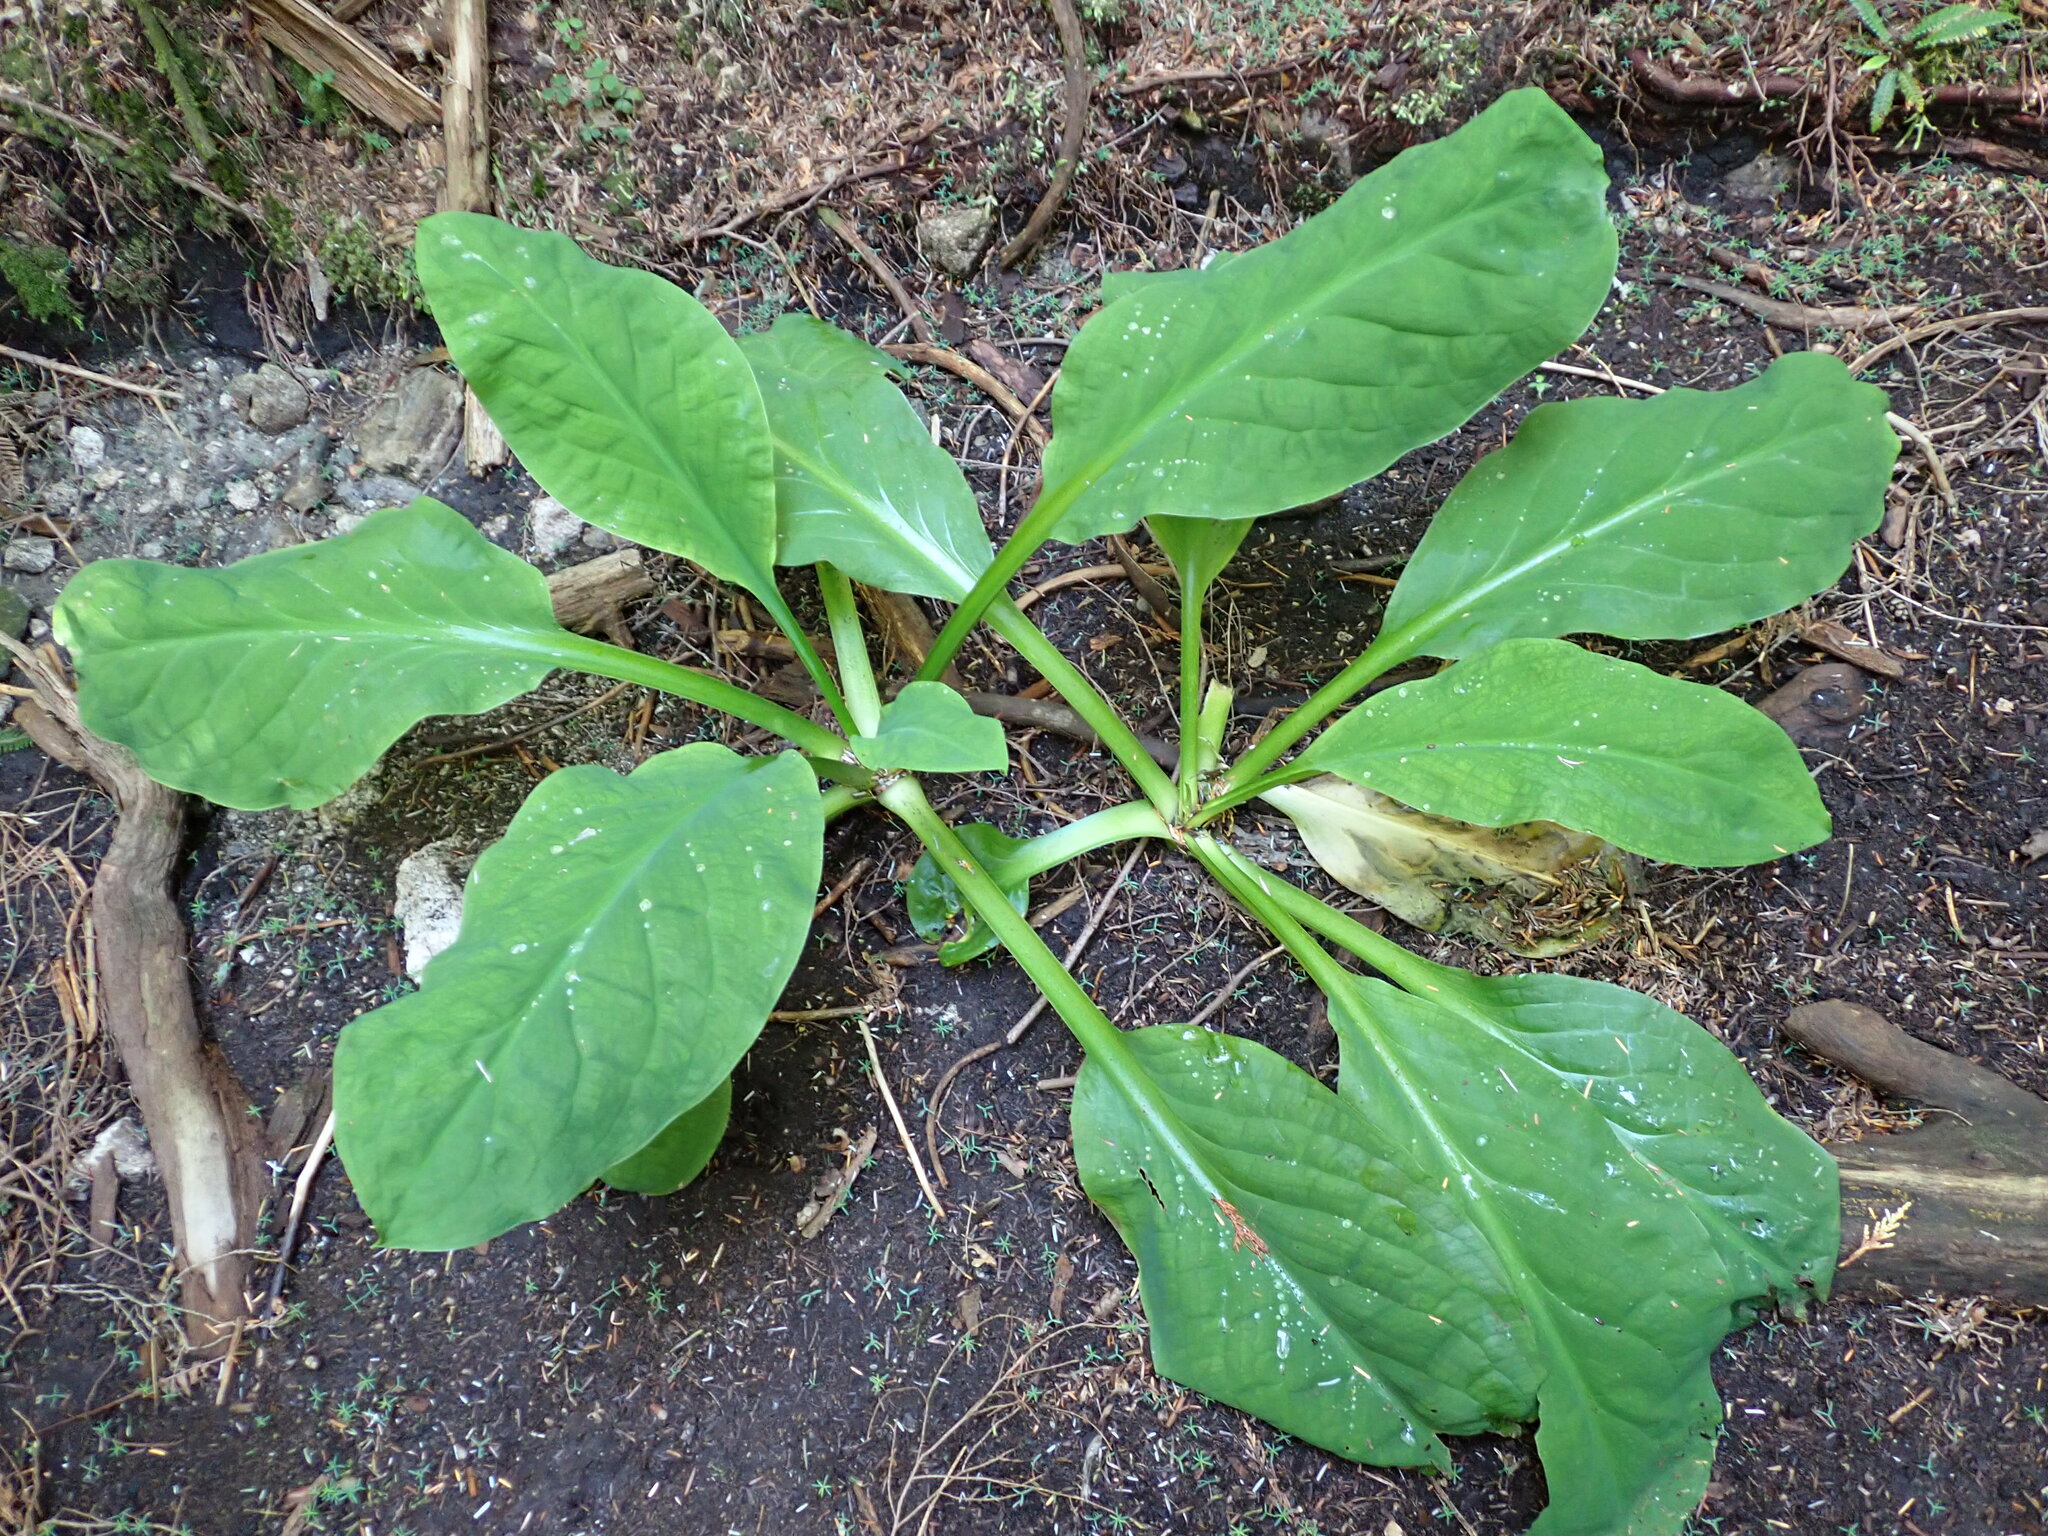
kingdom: Plantae
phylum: Tracheophyta
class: Liliopsida
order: Alismatales
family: Araceae
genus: Lysichiton
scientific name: Lysichiton americanus
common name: American skunk cabbage
